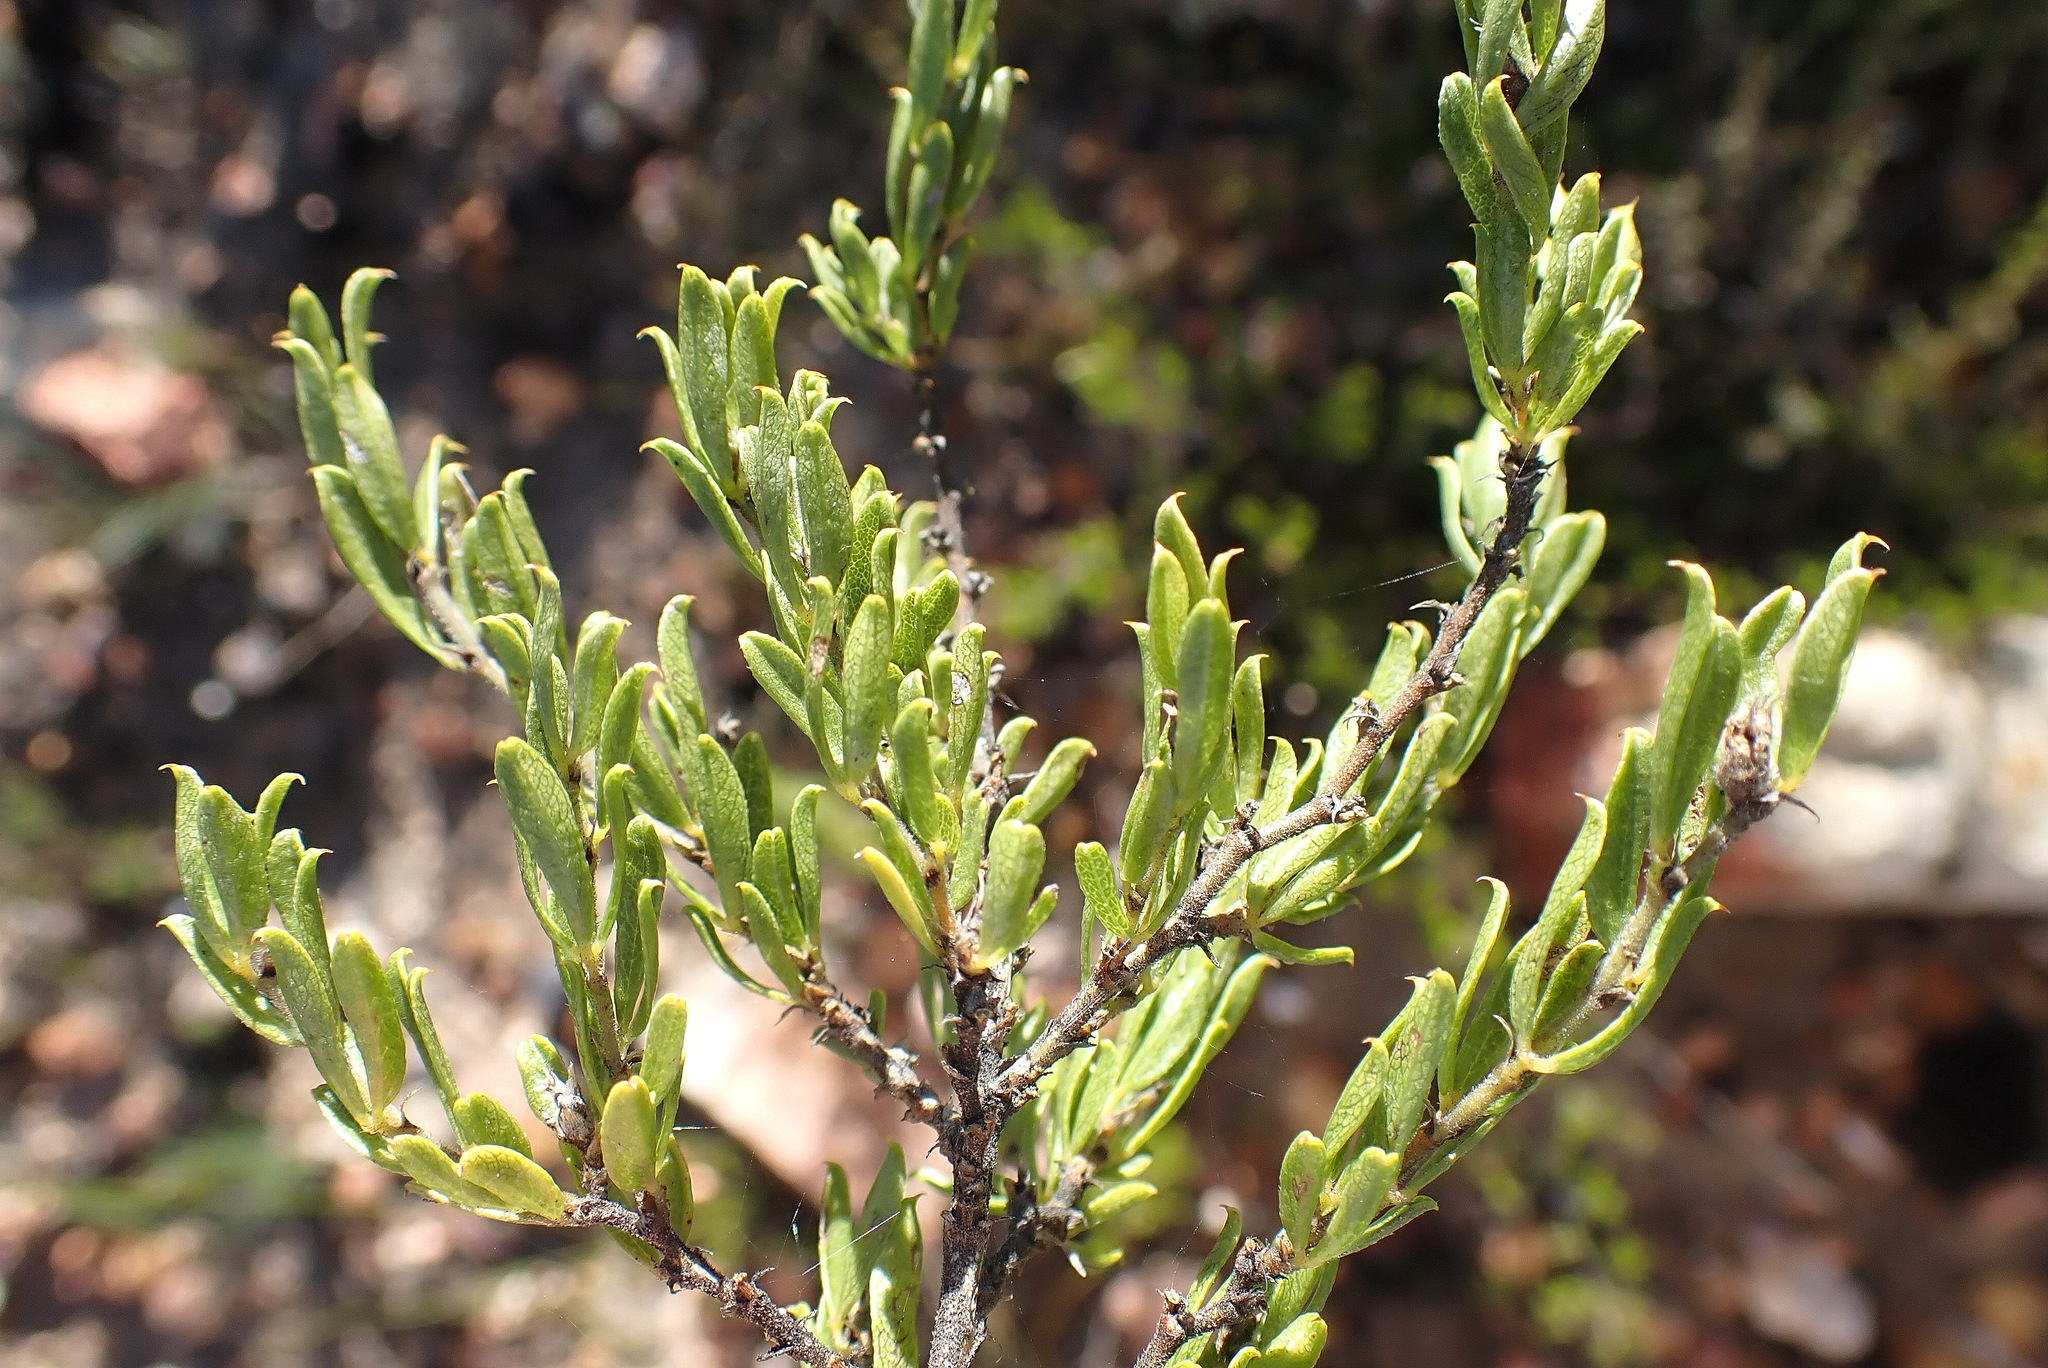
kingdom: Plantae
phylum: Tracheophyta
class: Magnoliopsida
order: Fabales
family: Fabaceae
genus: Psoralea
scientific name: Psoralea heterosepala
